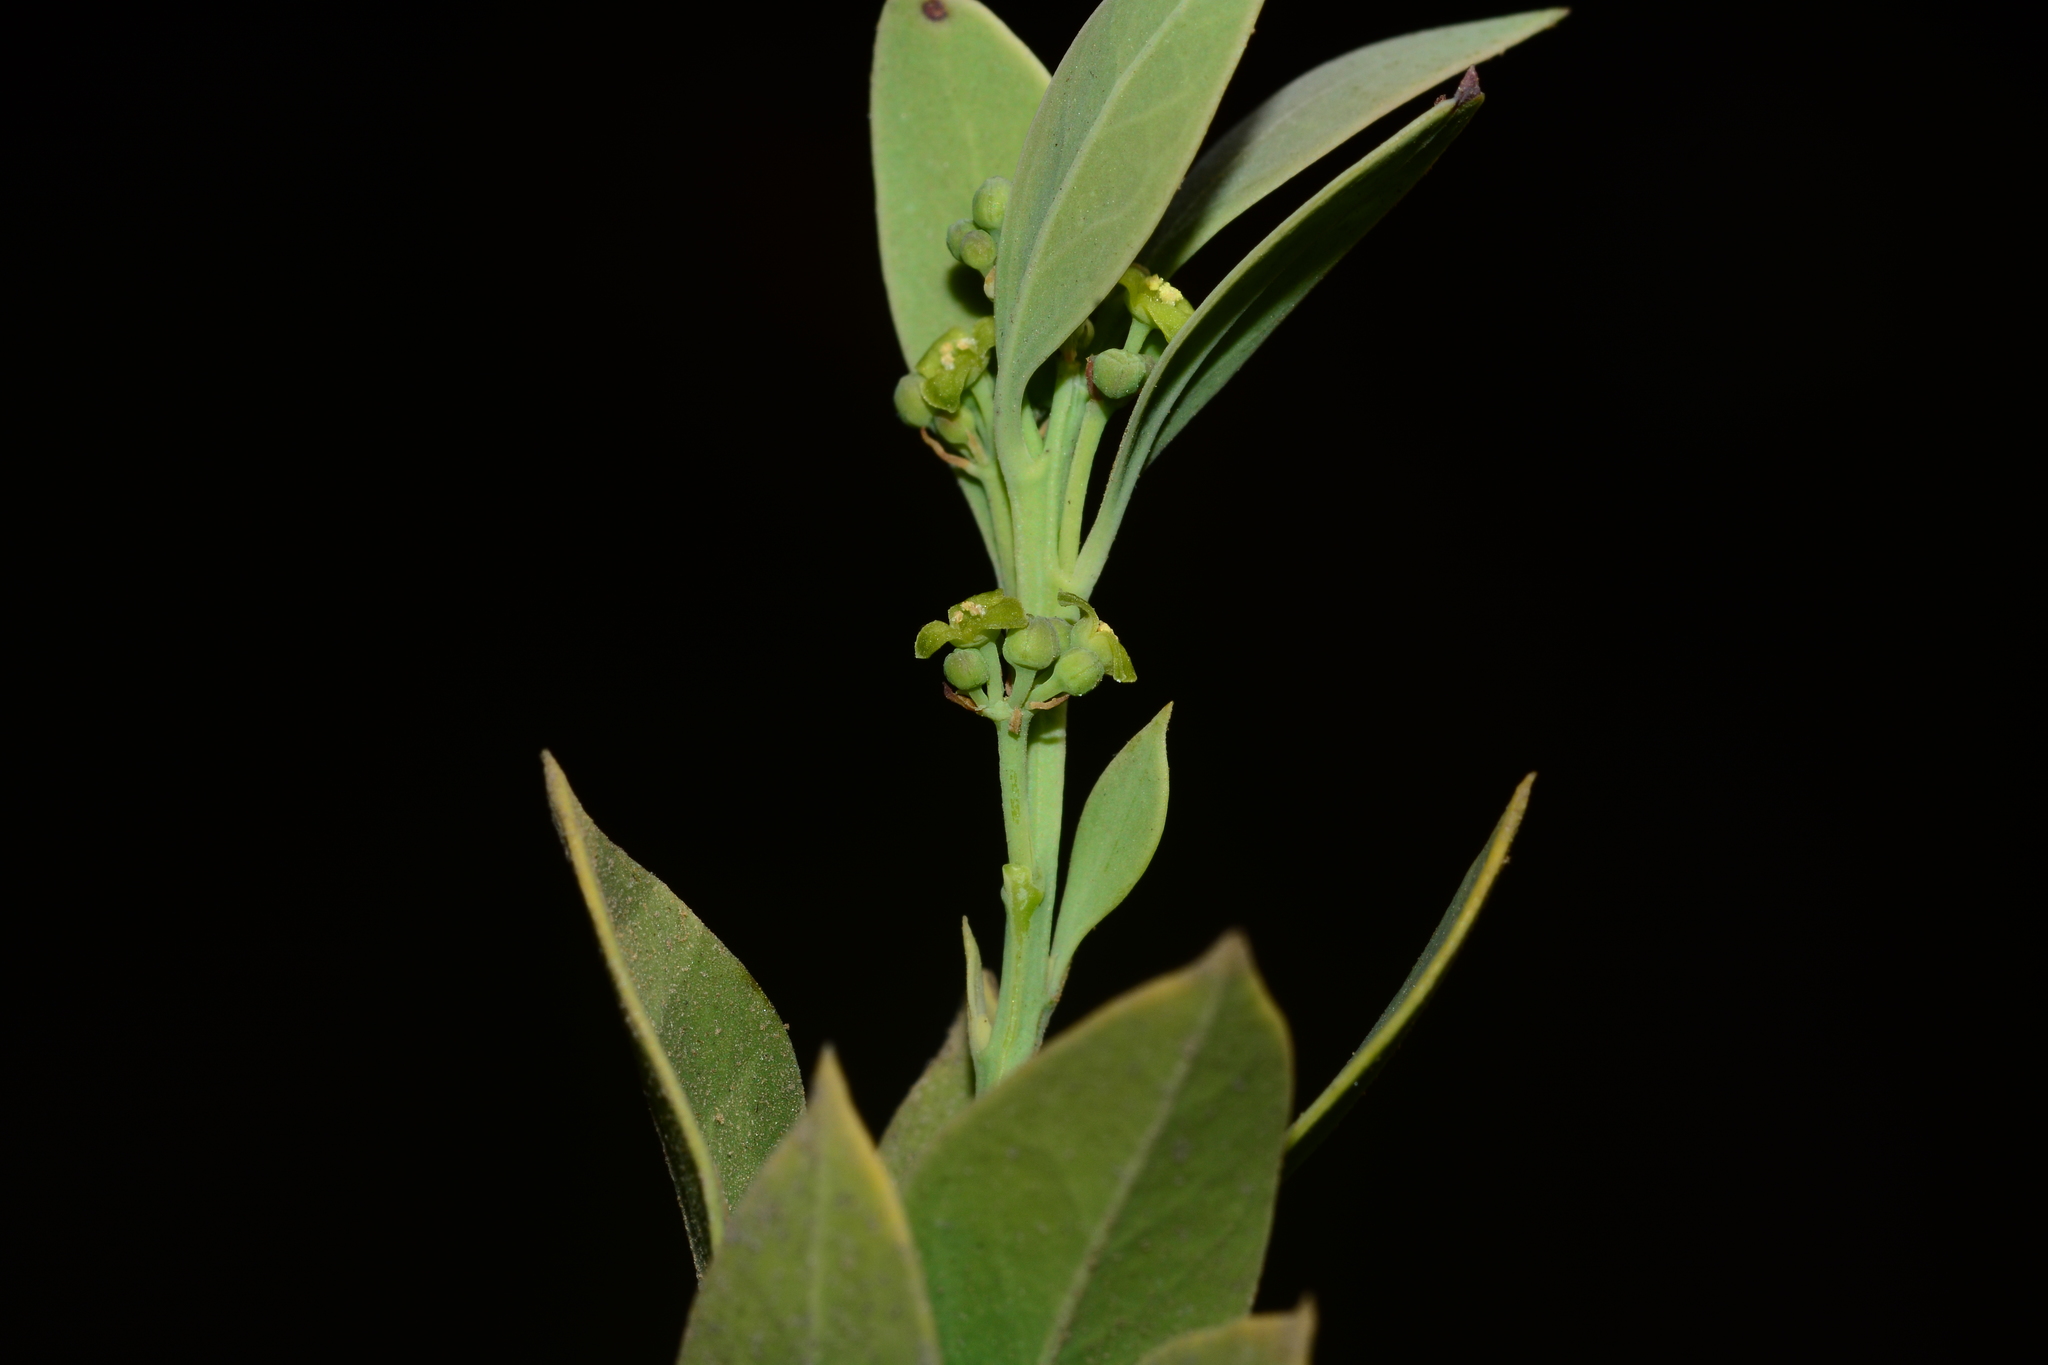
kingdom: Plantae
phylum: Tracheophyta
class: Magnoliopsida
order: Santalales
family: Santalaceae
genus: Osyris
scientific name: Osyris lanceolata
